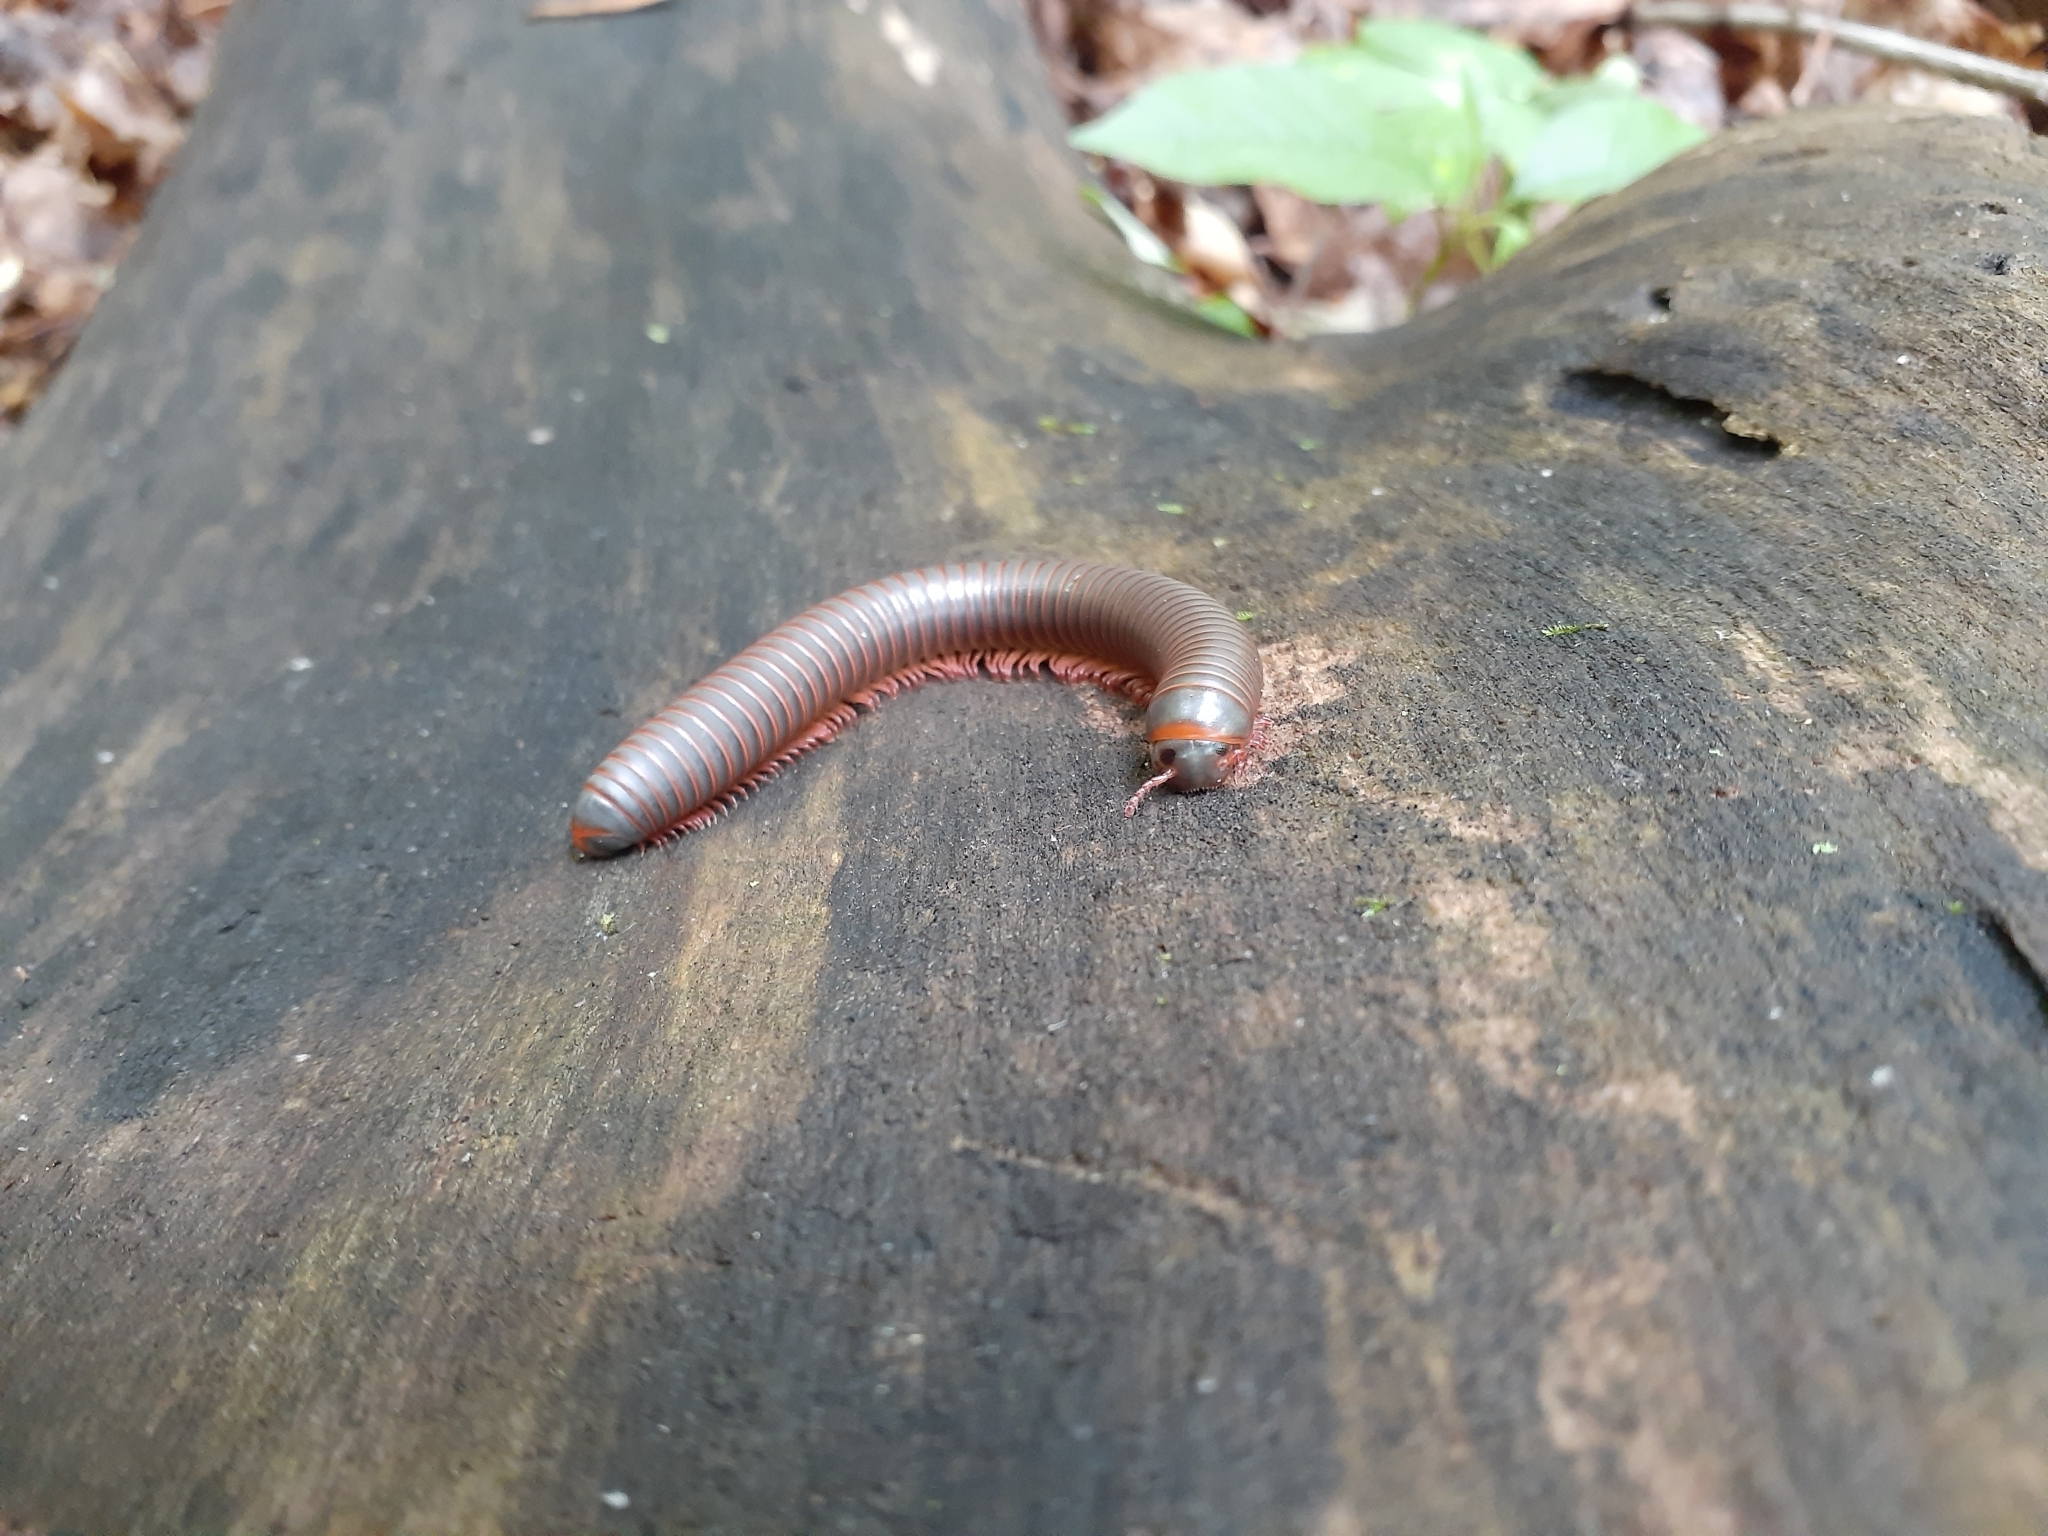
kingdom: Animalia
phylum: Arthropoda
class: Diplopoda
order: Spirobolida
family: Spirobolidae
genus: Narceus
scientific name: Narceus
